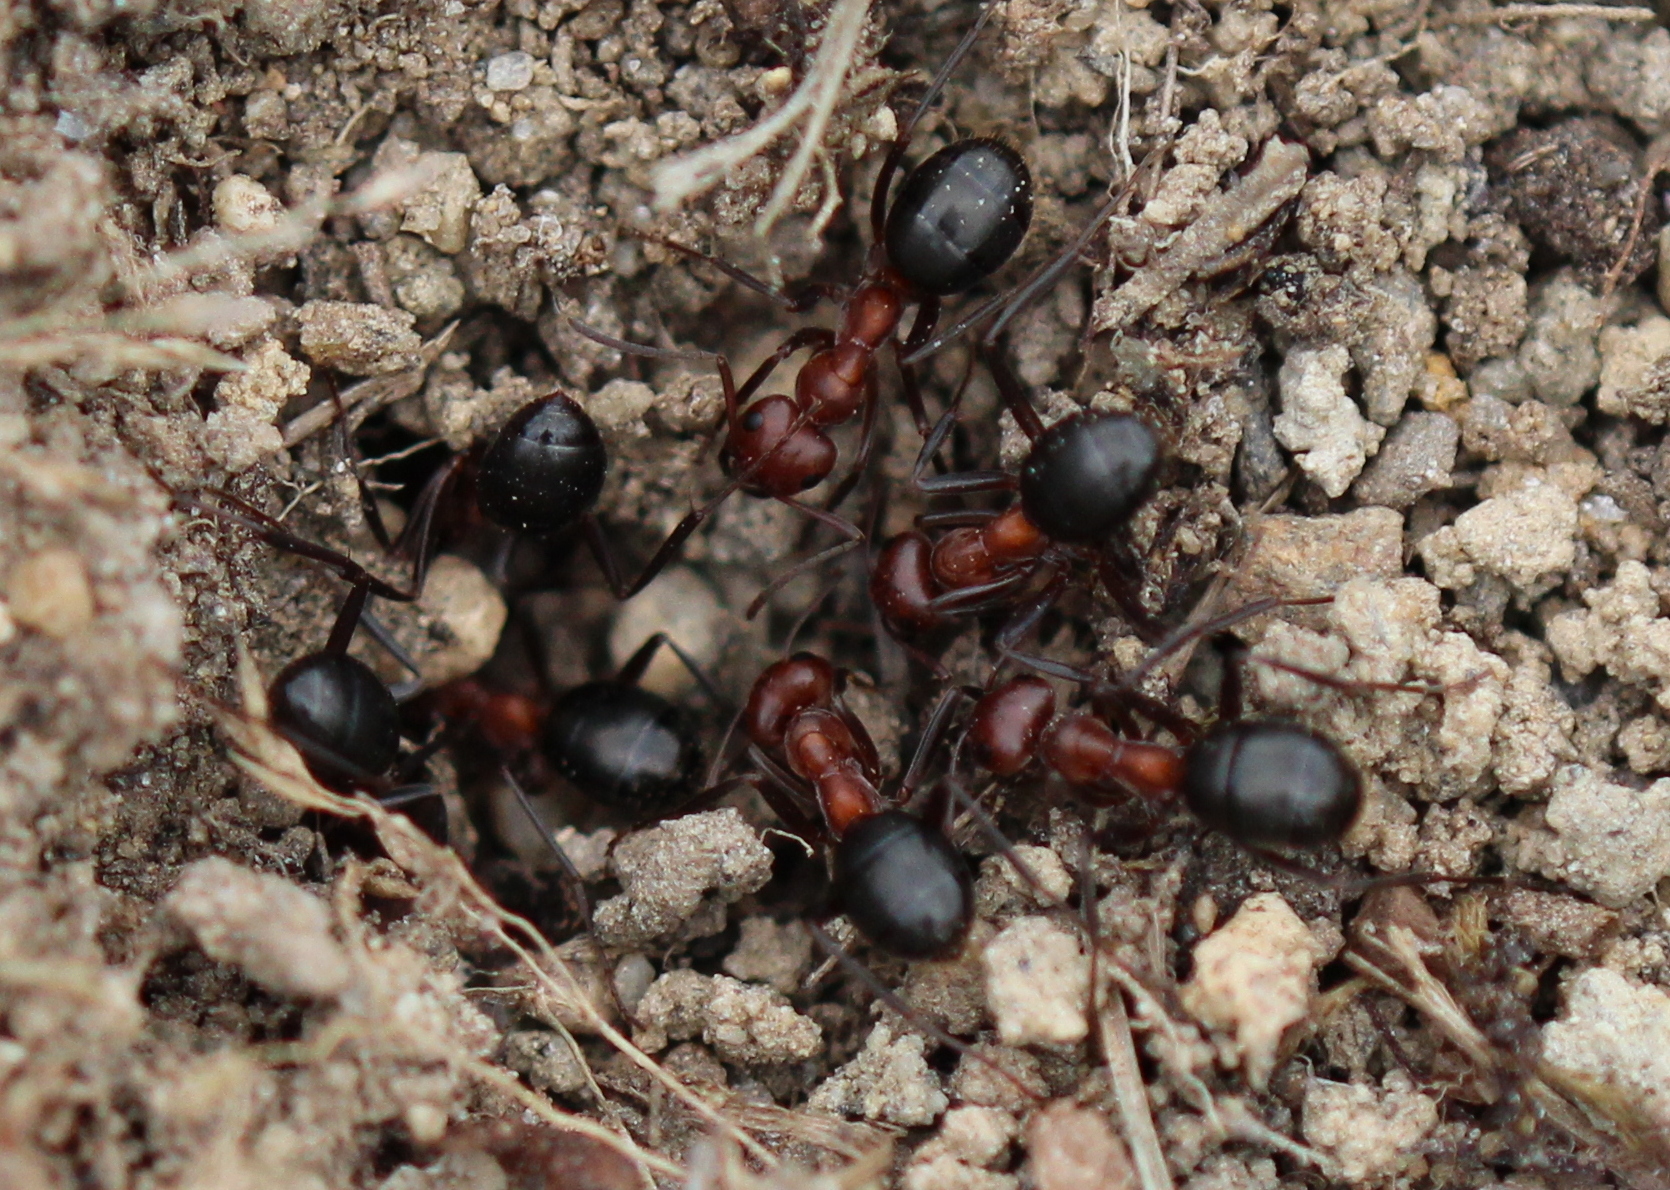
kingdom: Animalia
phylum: Arthropoda
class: Insecta
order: Hymenoptera
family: Formicidae
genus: Formica
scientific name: Formica exsectoides
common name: Allegheny mound ant
